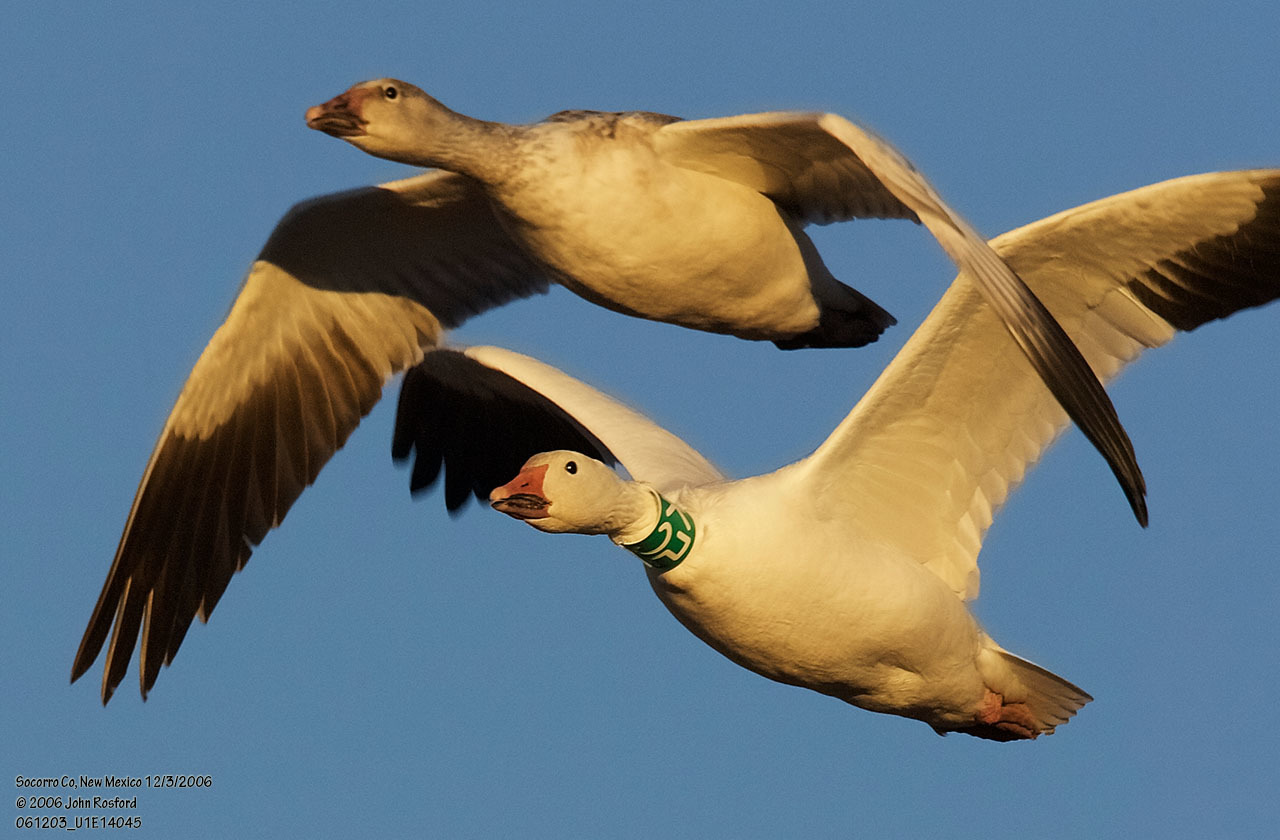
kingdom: Animalia
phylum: Chordata
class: Aves
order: Anseriformes
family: Anatidae
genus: Anser
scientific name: Anser caerulescens
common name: Snow goose
